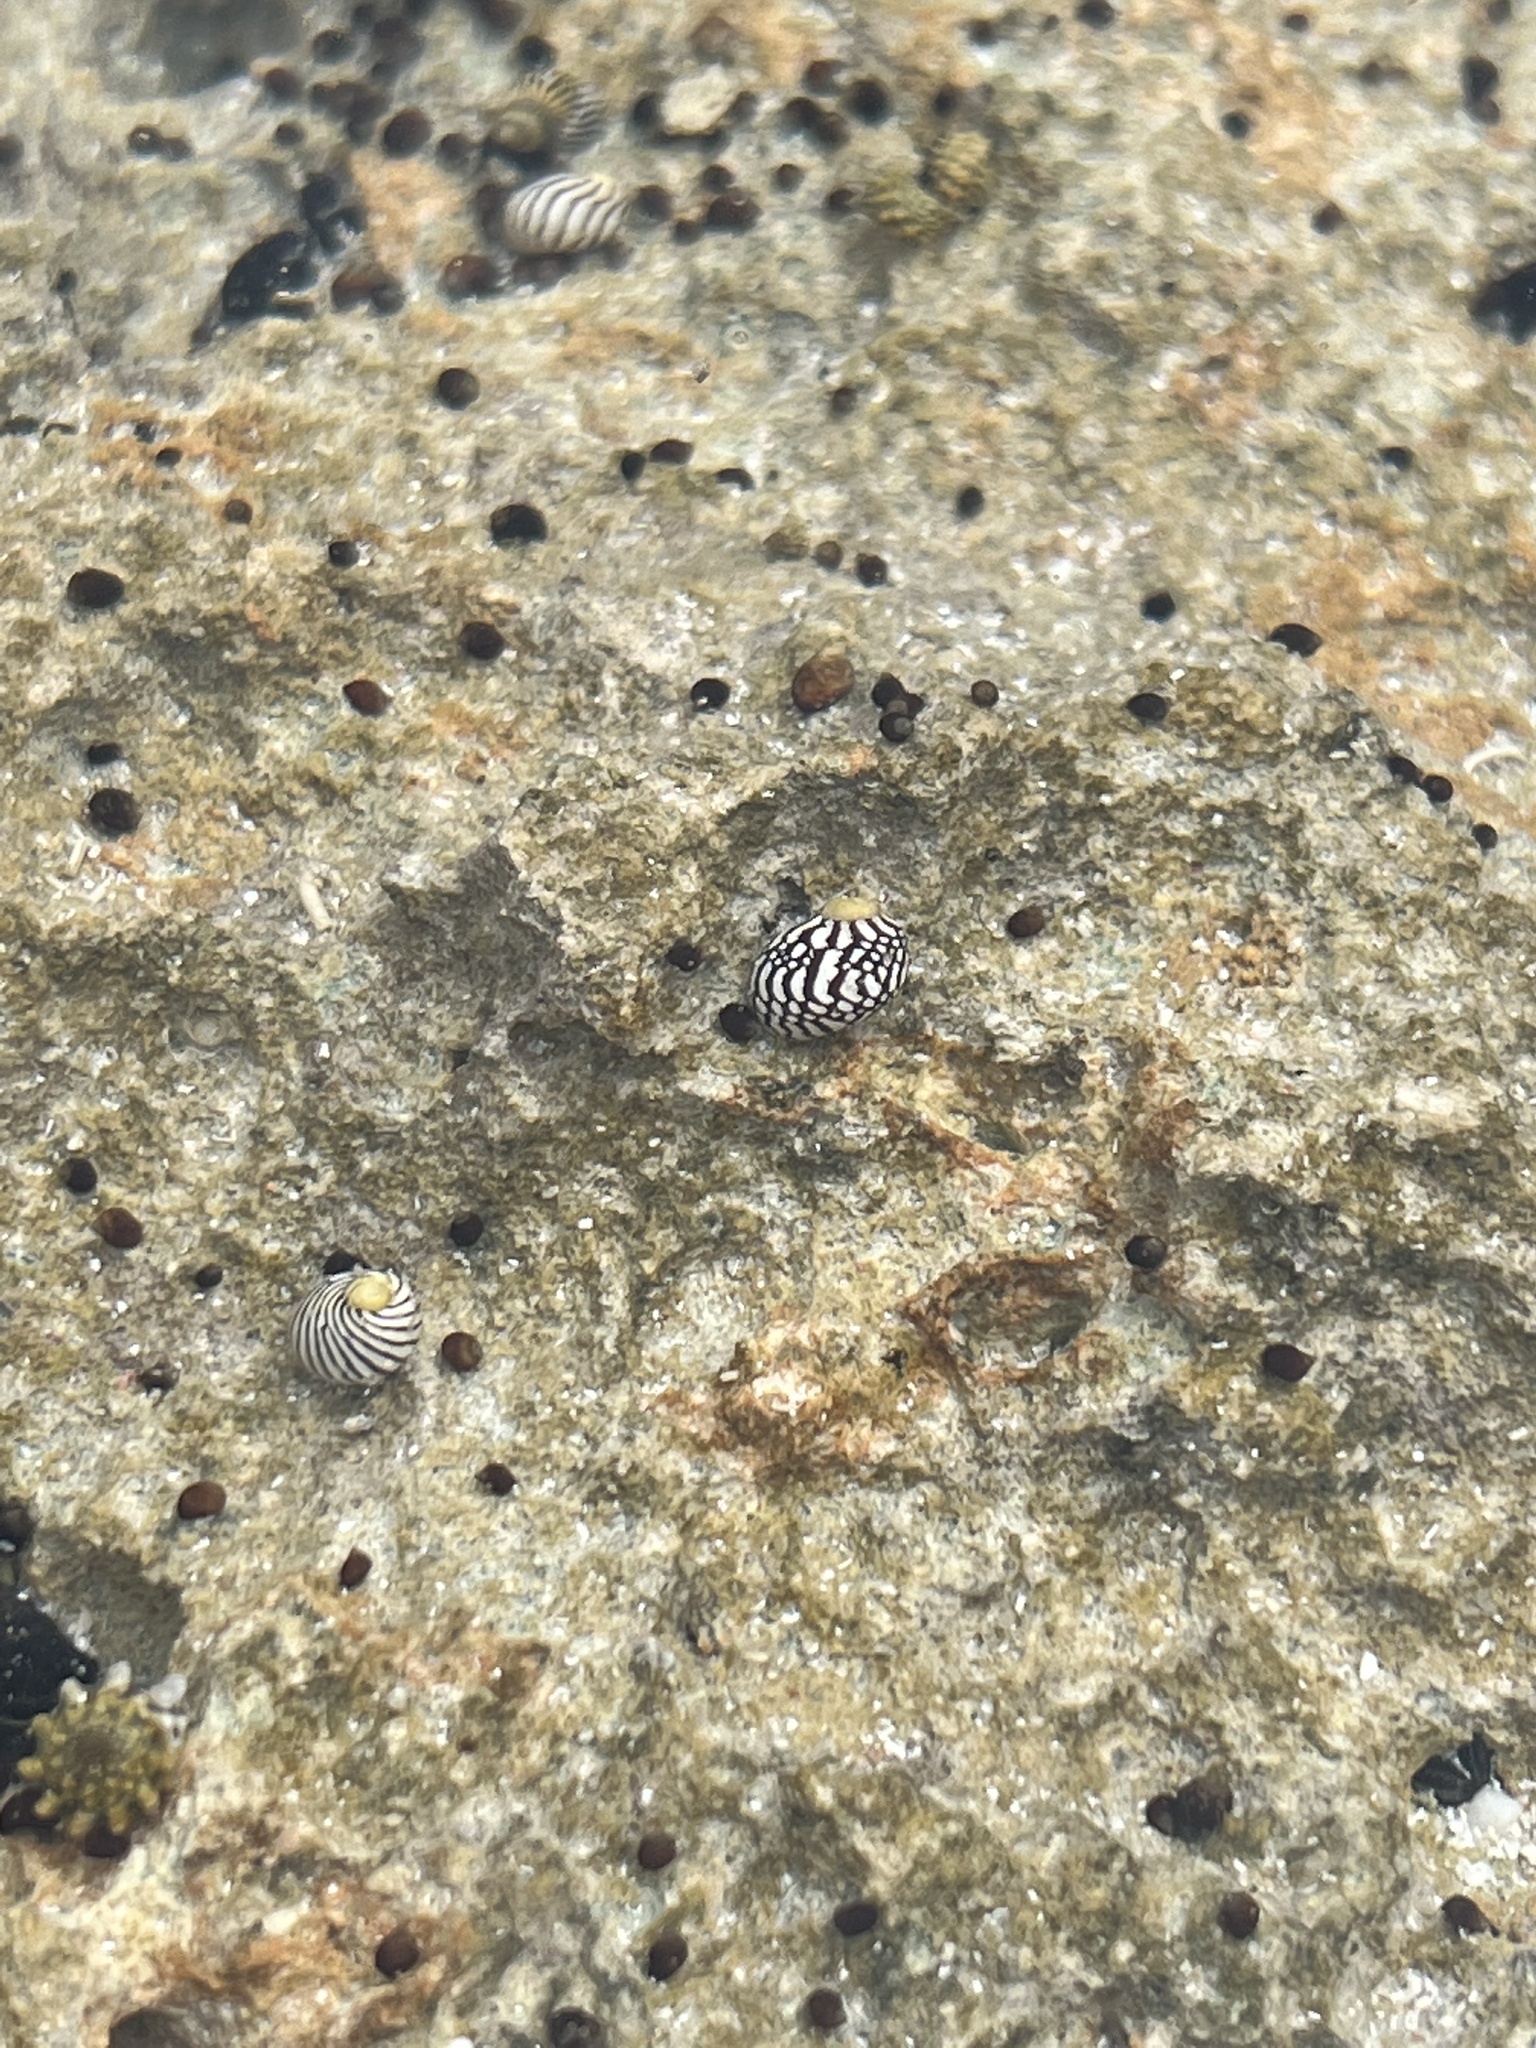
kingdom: Animalia
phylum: Mollusca
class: Gastropoda
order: Cycloneritida
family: Neritidae
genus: Nerita
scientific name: Nerita tessellata
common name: Checkered nerite
